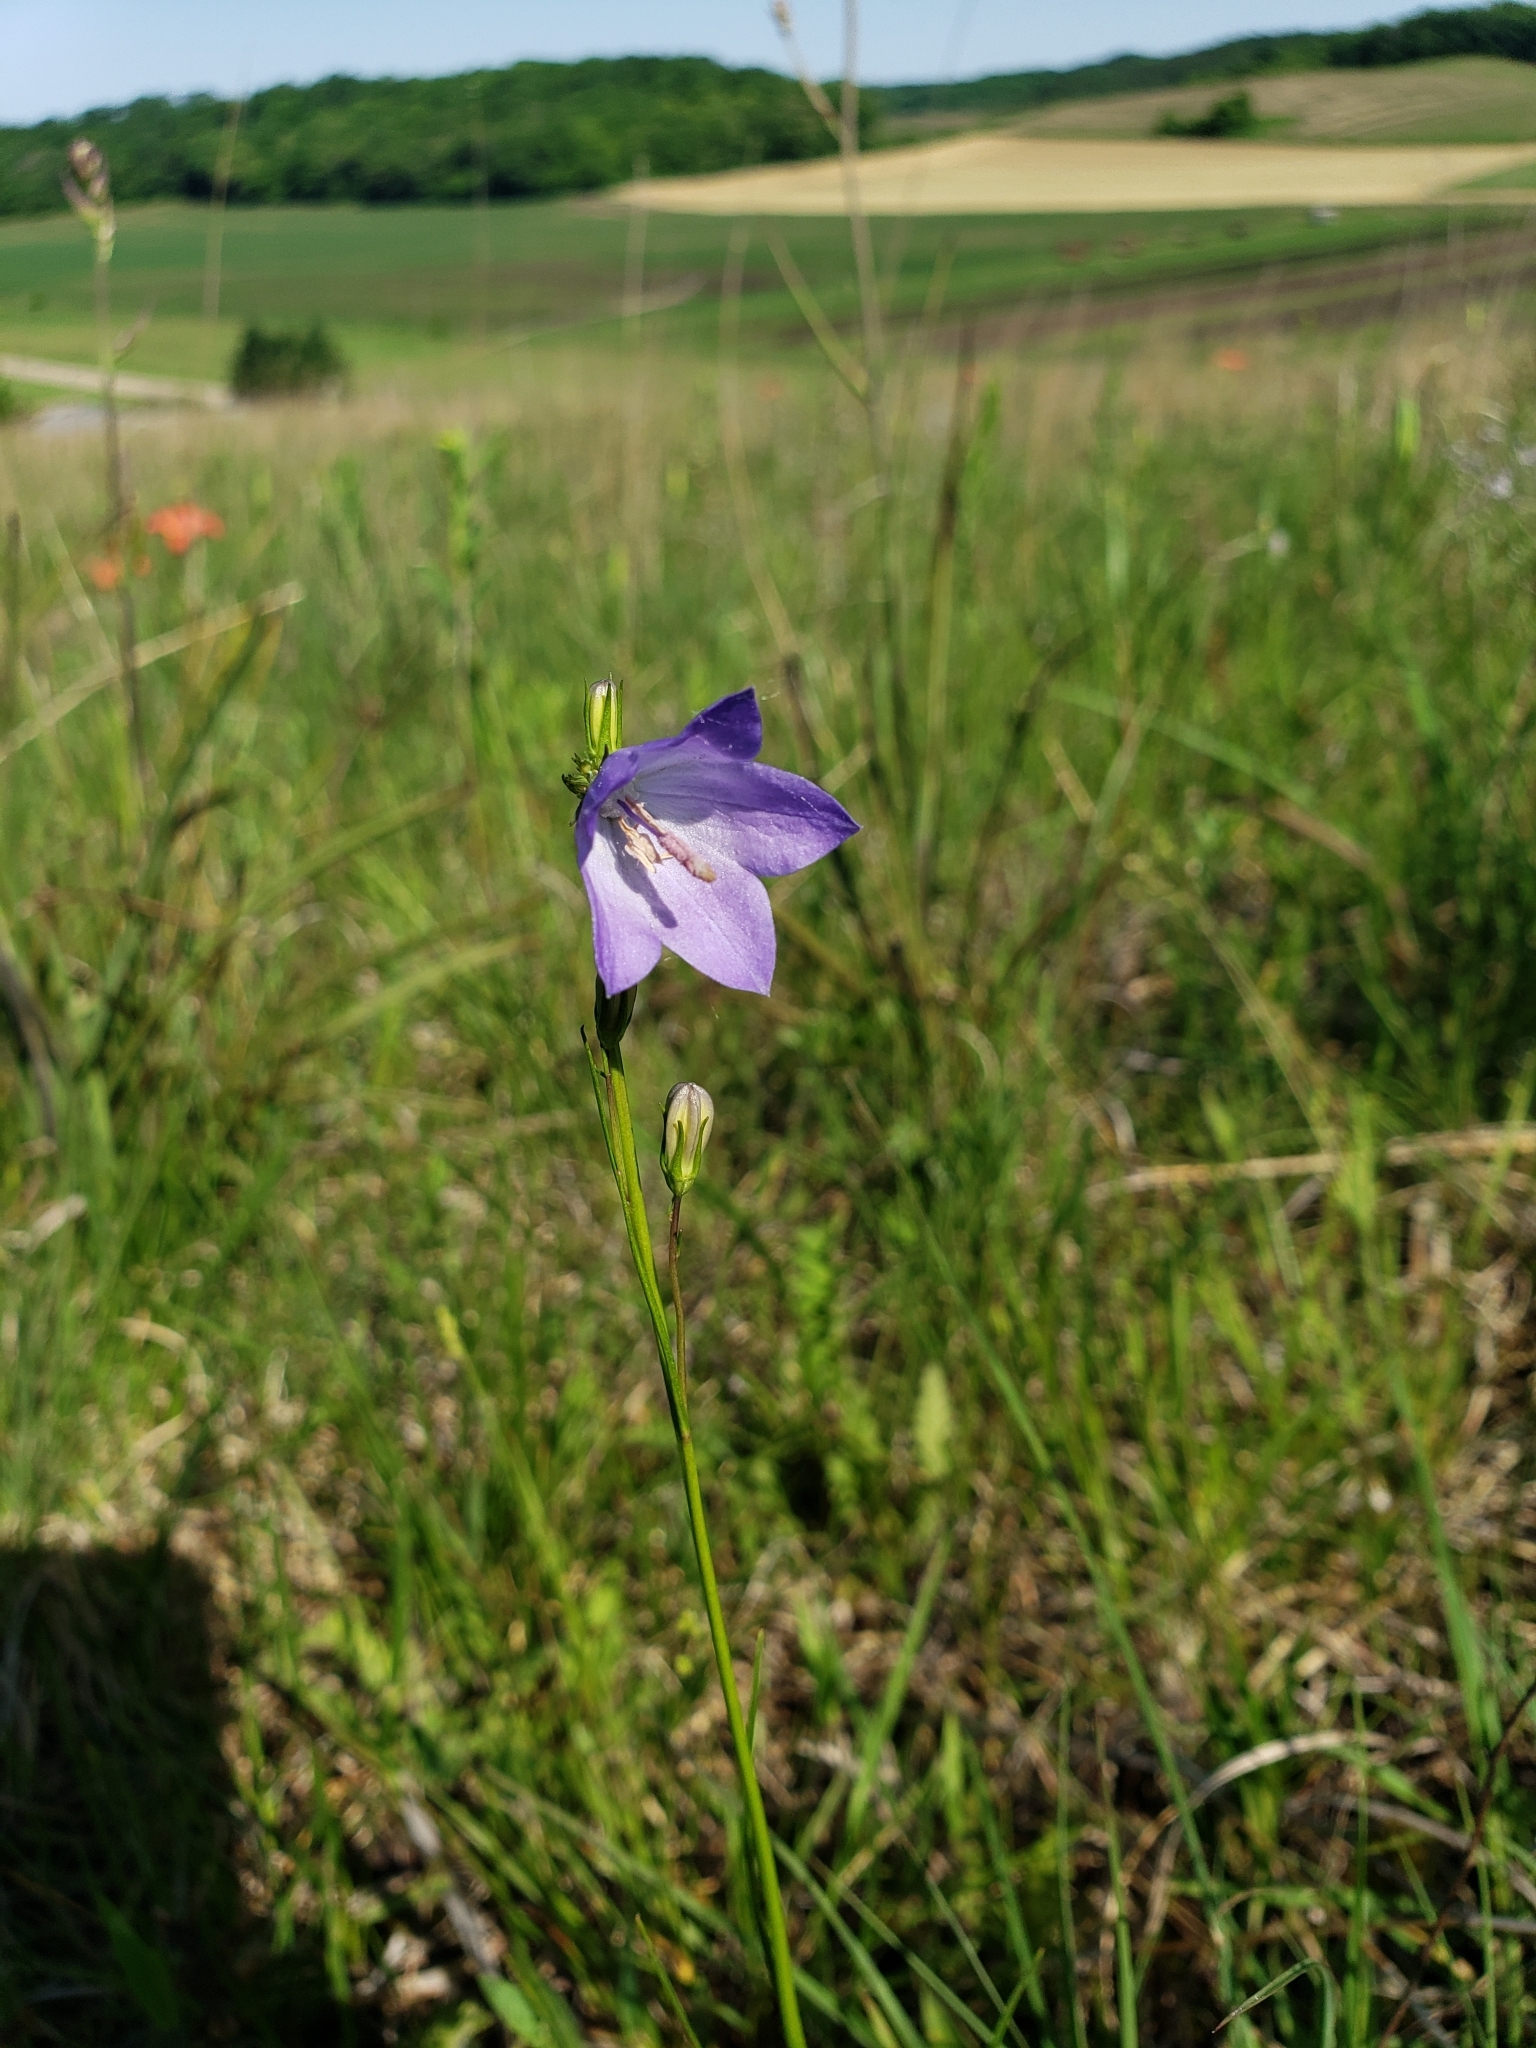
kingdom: Plantae
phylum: Tracheophyta
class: Magnoliopsida
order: Asterales
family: Campanulaceae
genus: Campanula
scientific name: Campanula intercedens
